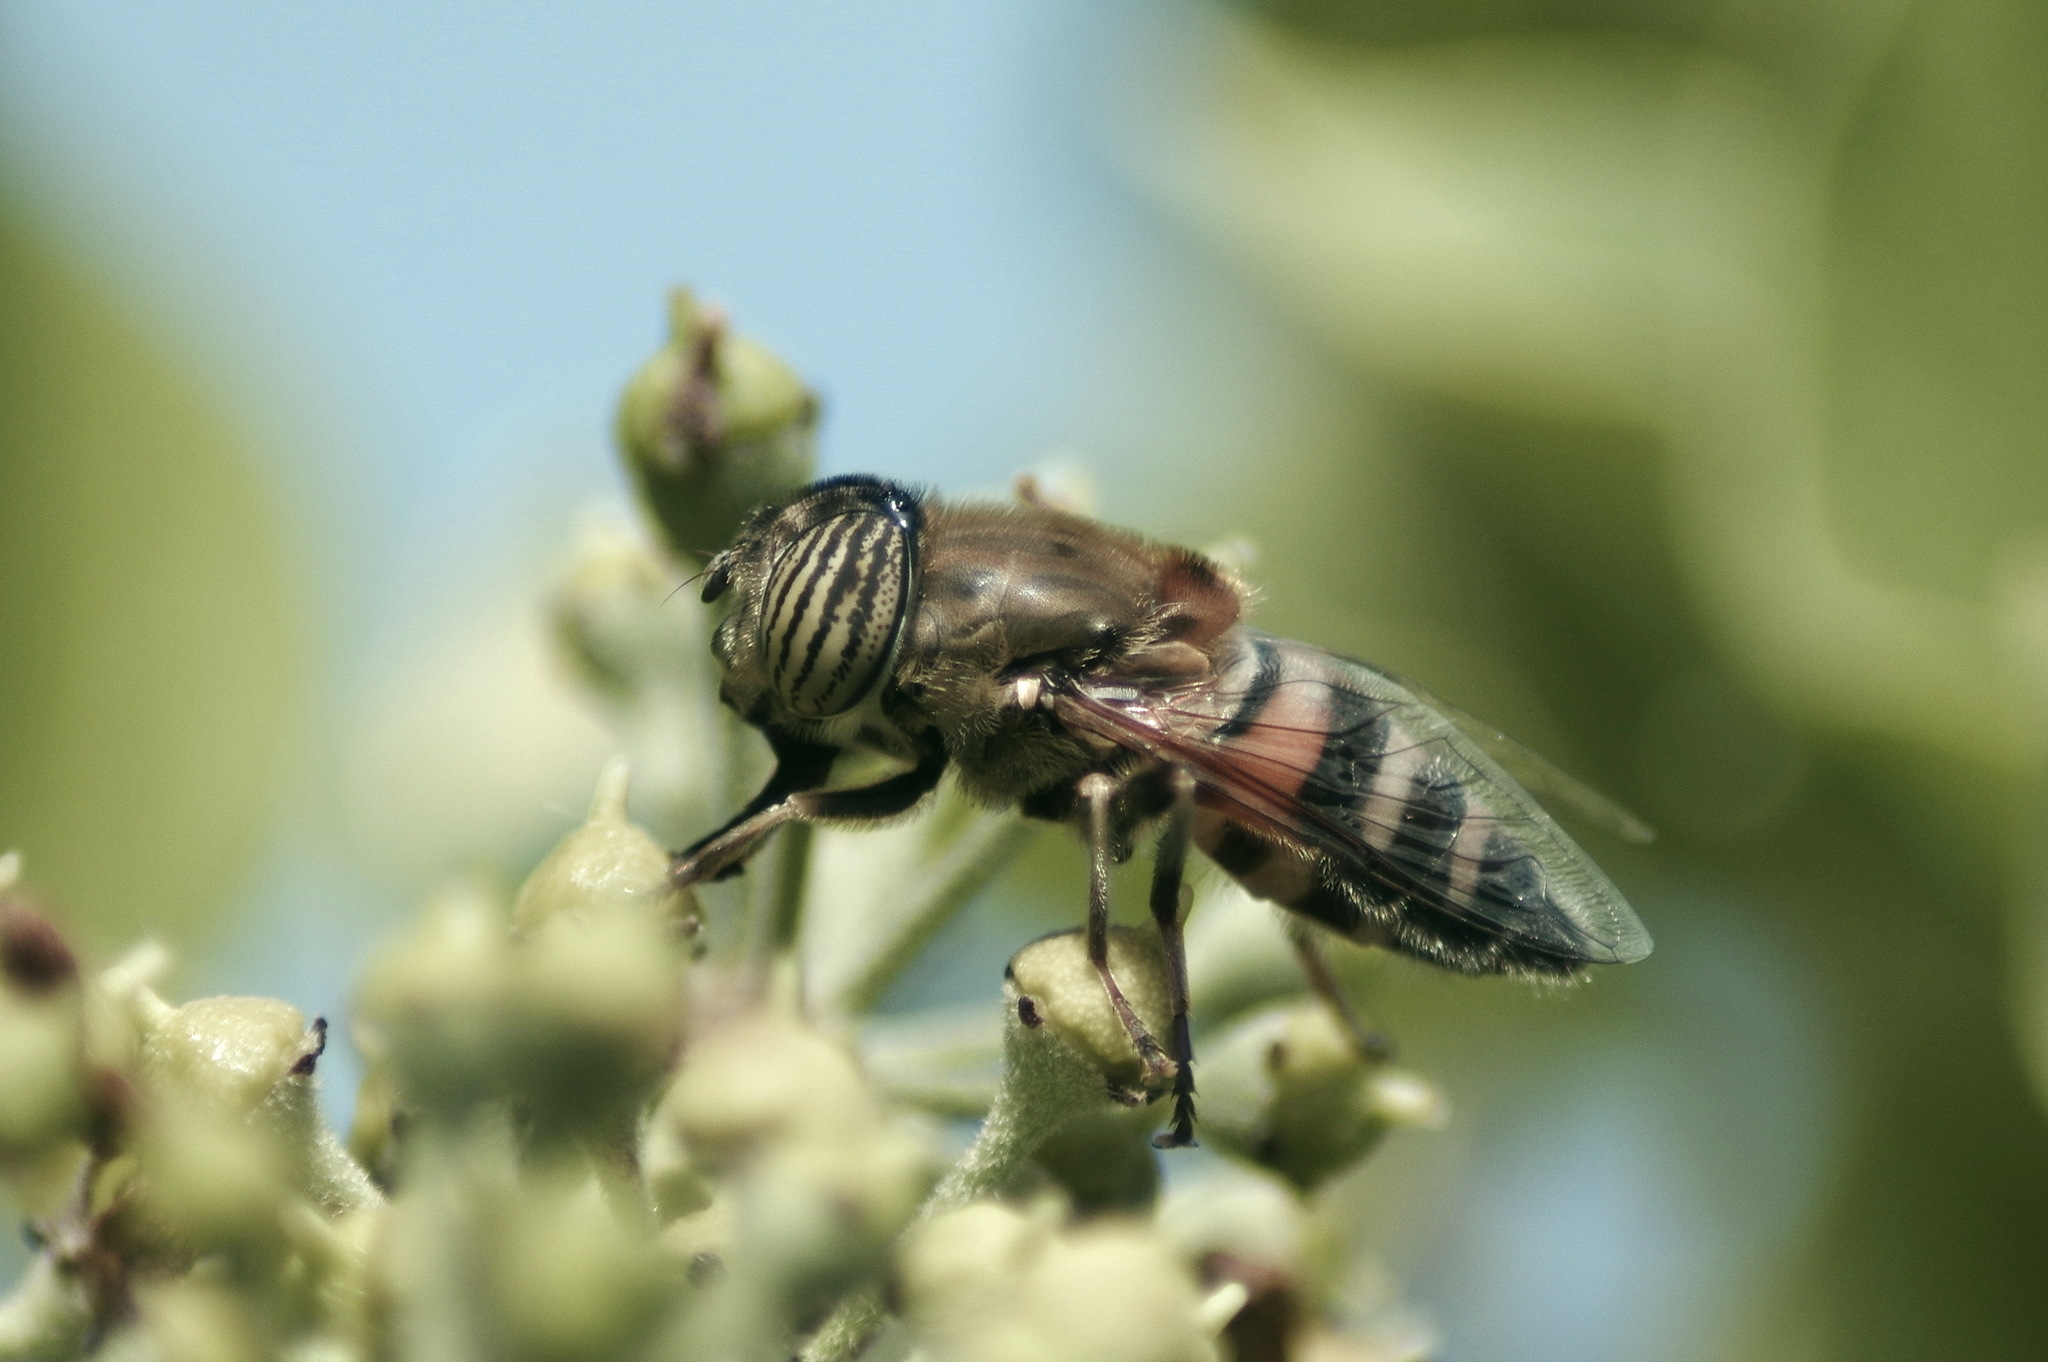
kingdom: Animalia
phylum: Arthropoda
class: Insecta
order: Diptera
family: Syrphidae
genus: Eristalinus
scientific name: Eristalinus taeniops
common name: Syrphid fly
